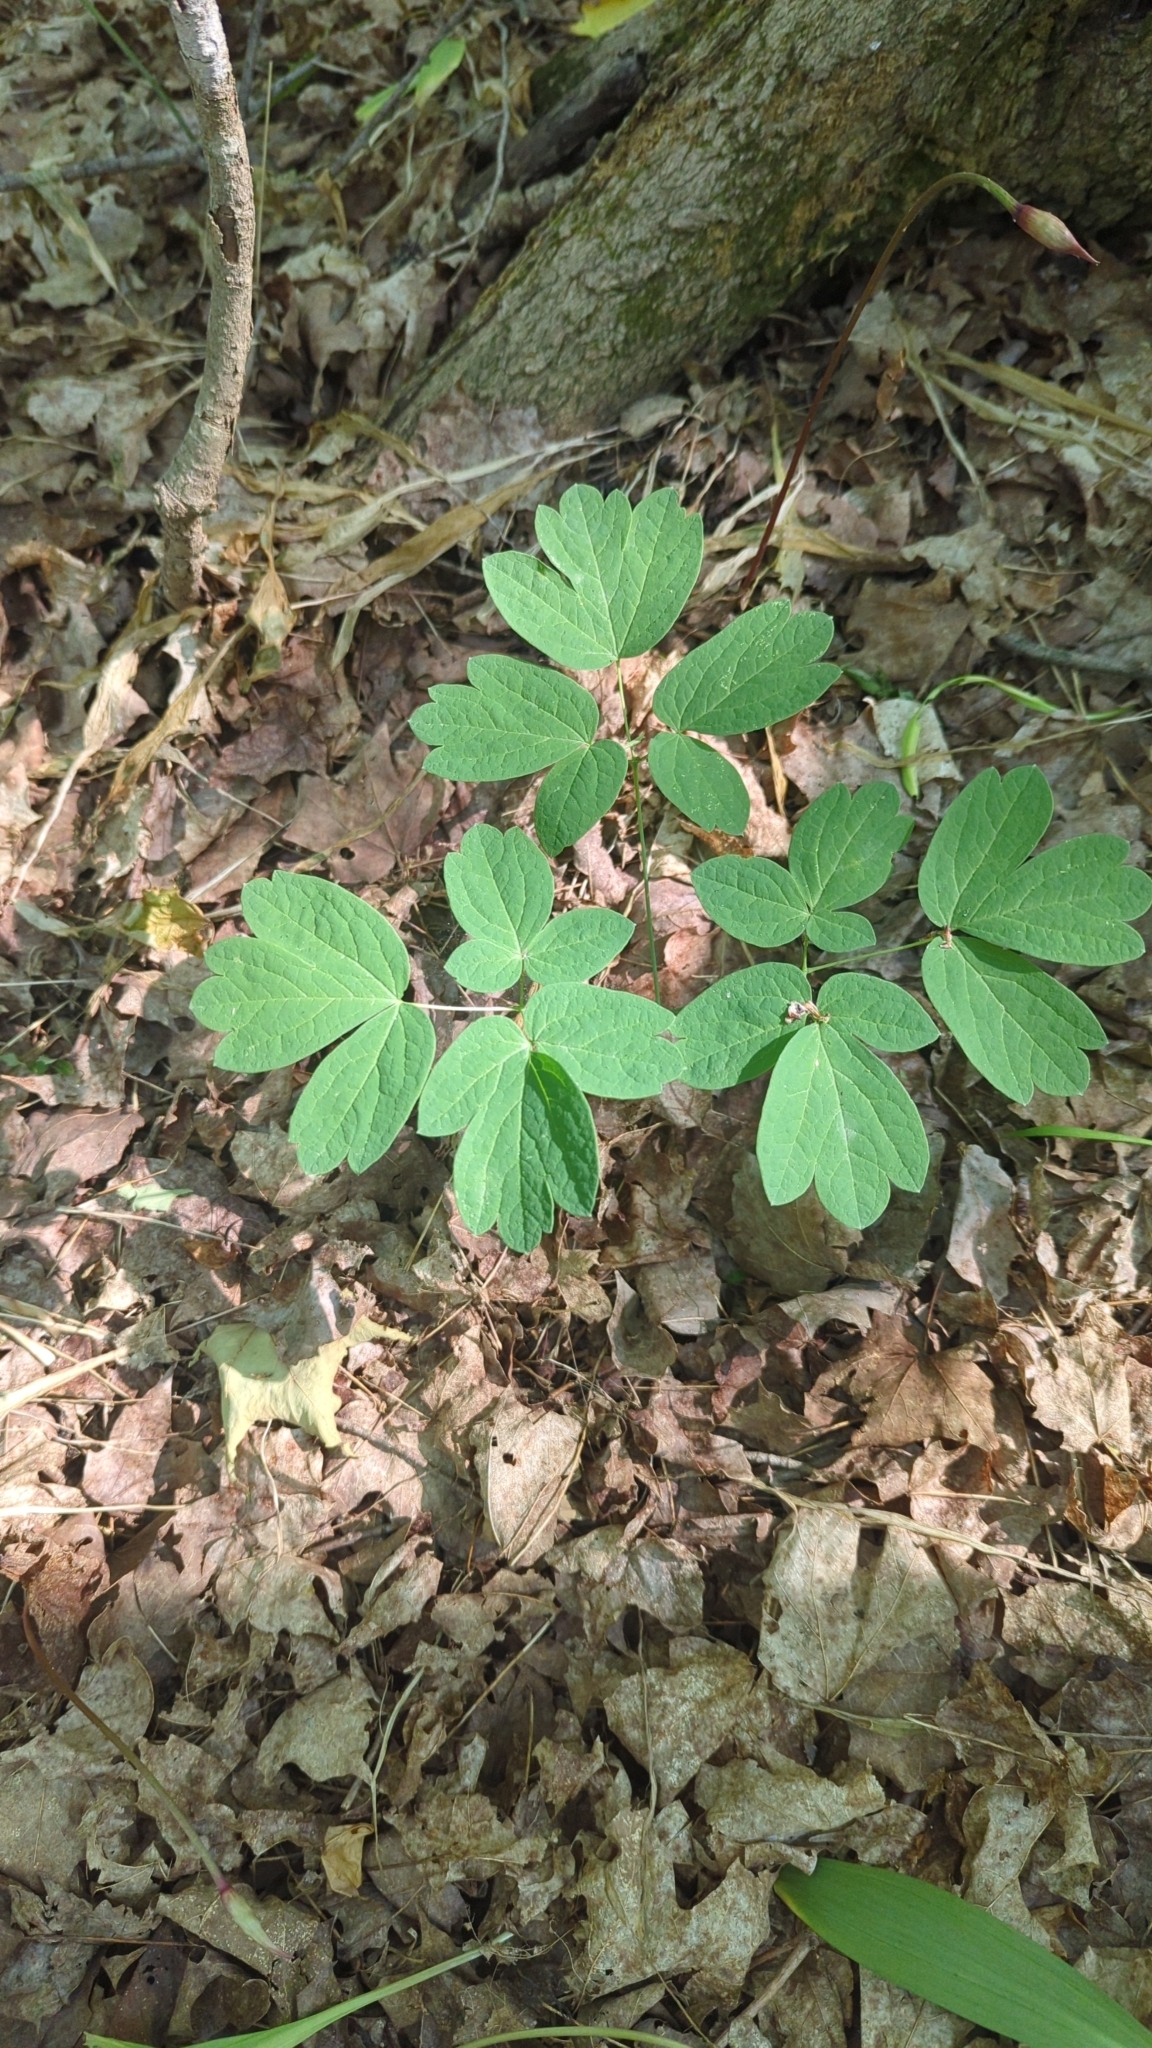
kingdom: Plantae
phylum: Tracheophyta
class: Magnoliopsida
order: Ranunculales
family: Berberidaceae
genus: Caulophyllum
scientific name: Caulophyllum thalictroides
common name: Blue cohosh
